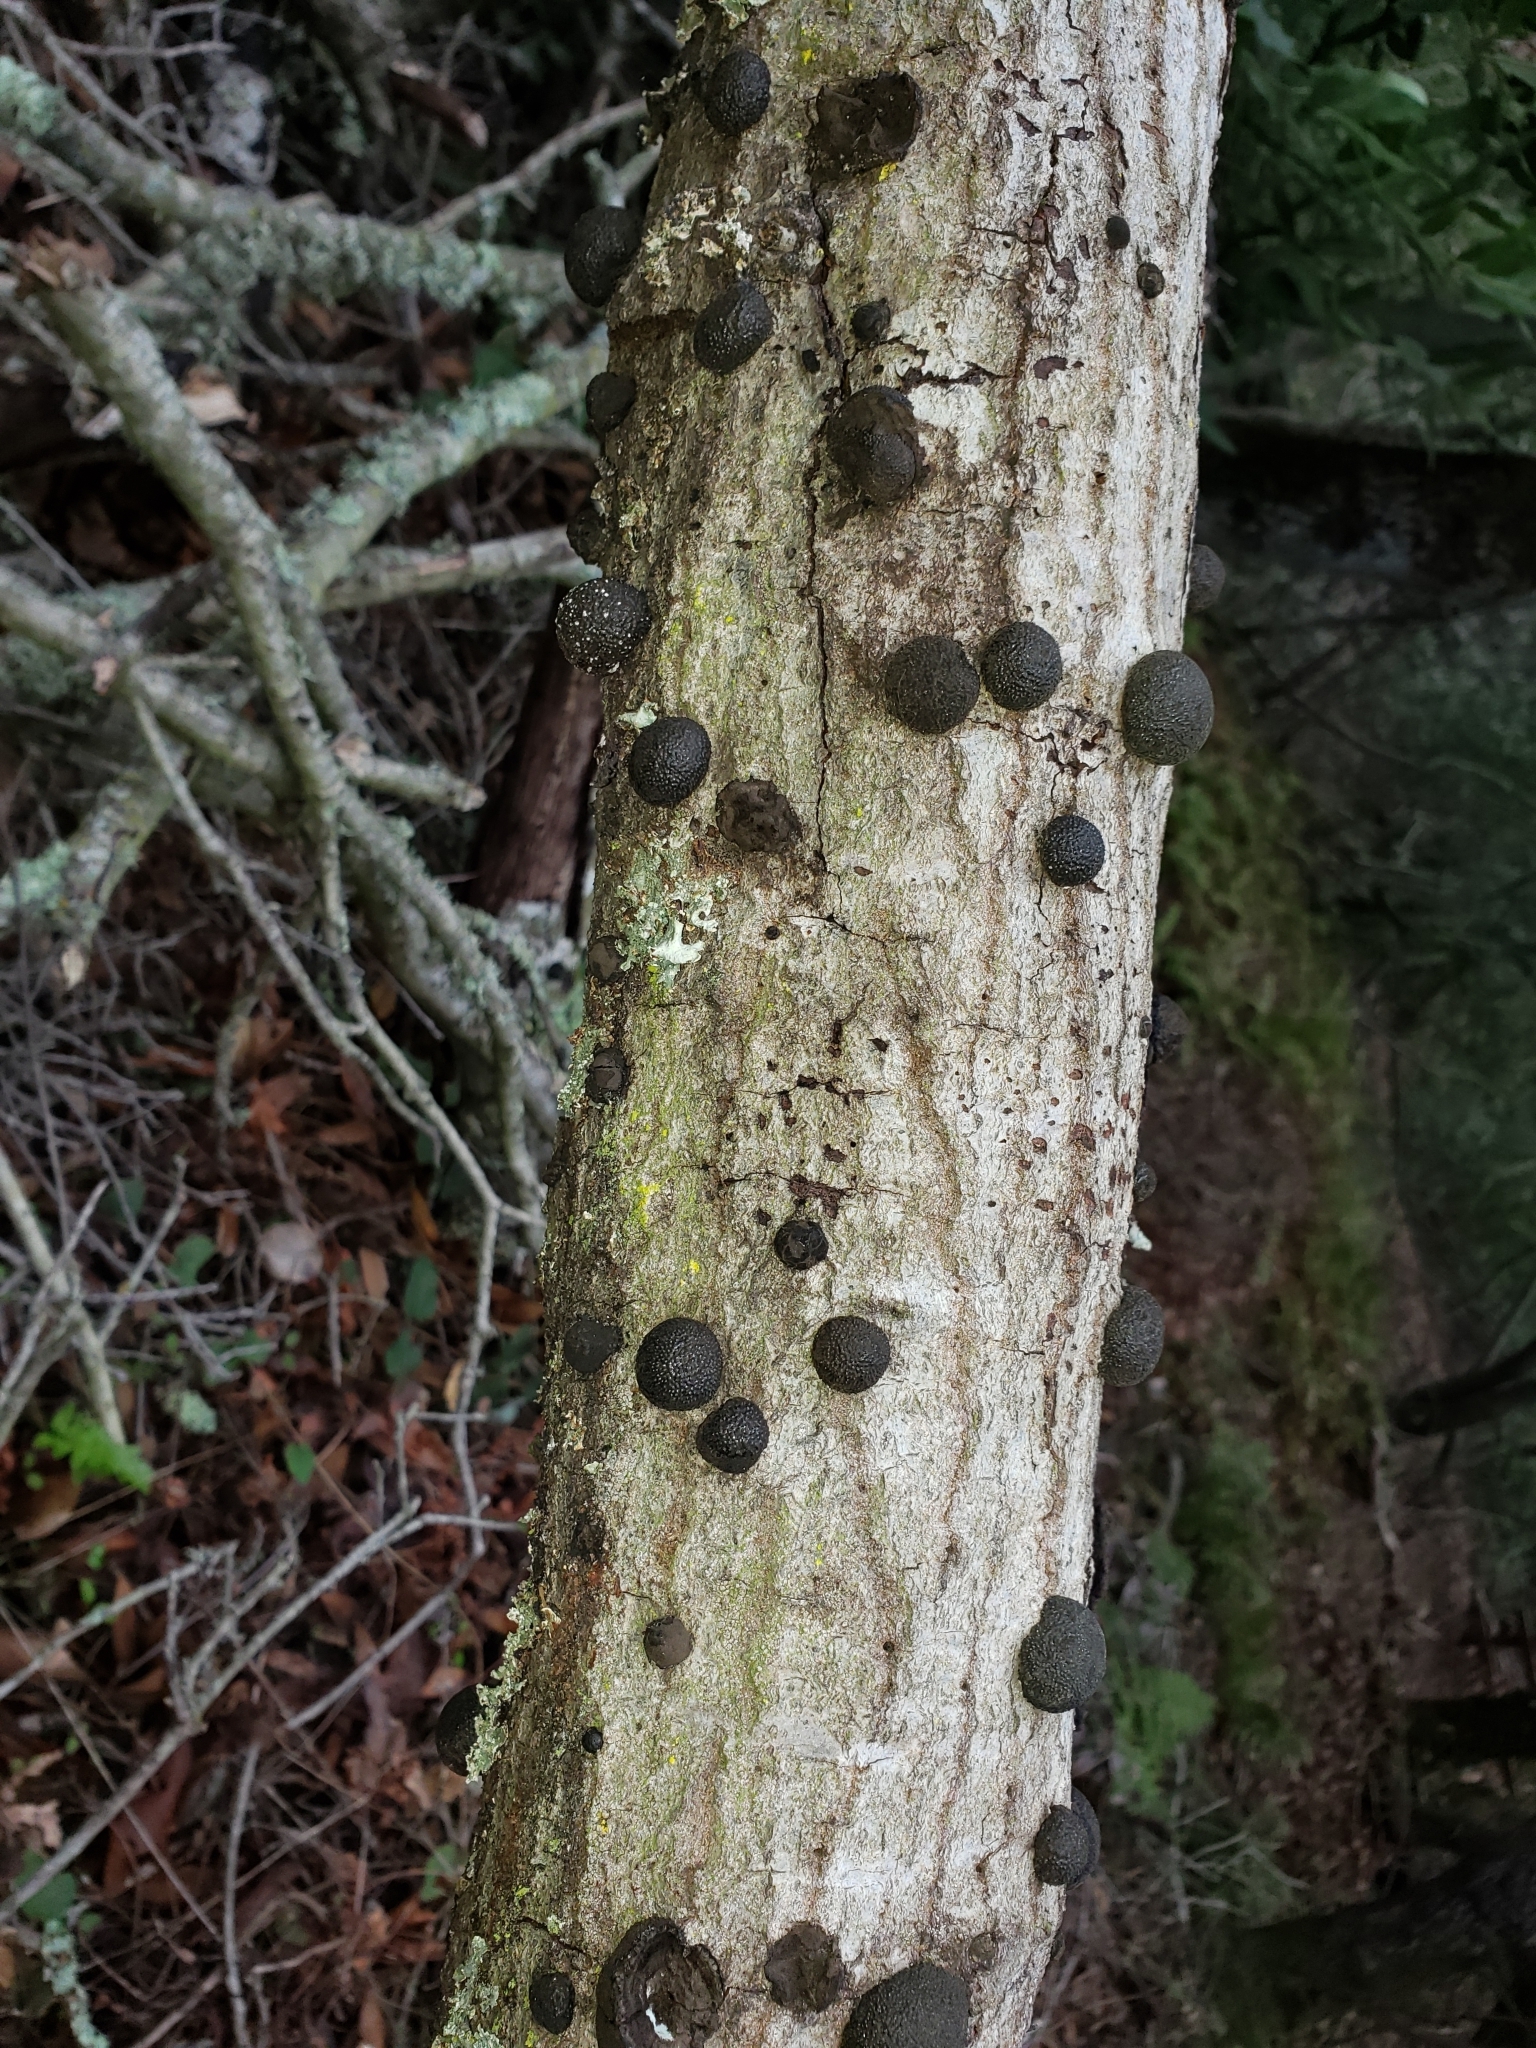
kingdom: Fungi
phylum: Ascomycota
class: Sordariomycetes
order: Xylariales
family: Hypoxylaceae
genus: Annulohypoxylon
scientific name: Annulohypoxylon thouarsianum
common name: Cramp balls
